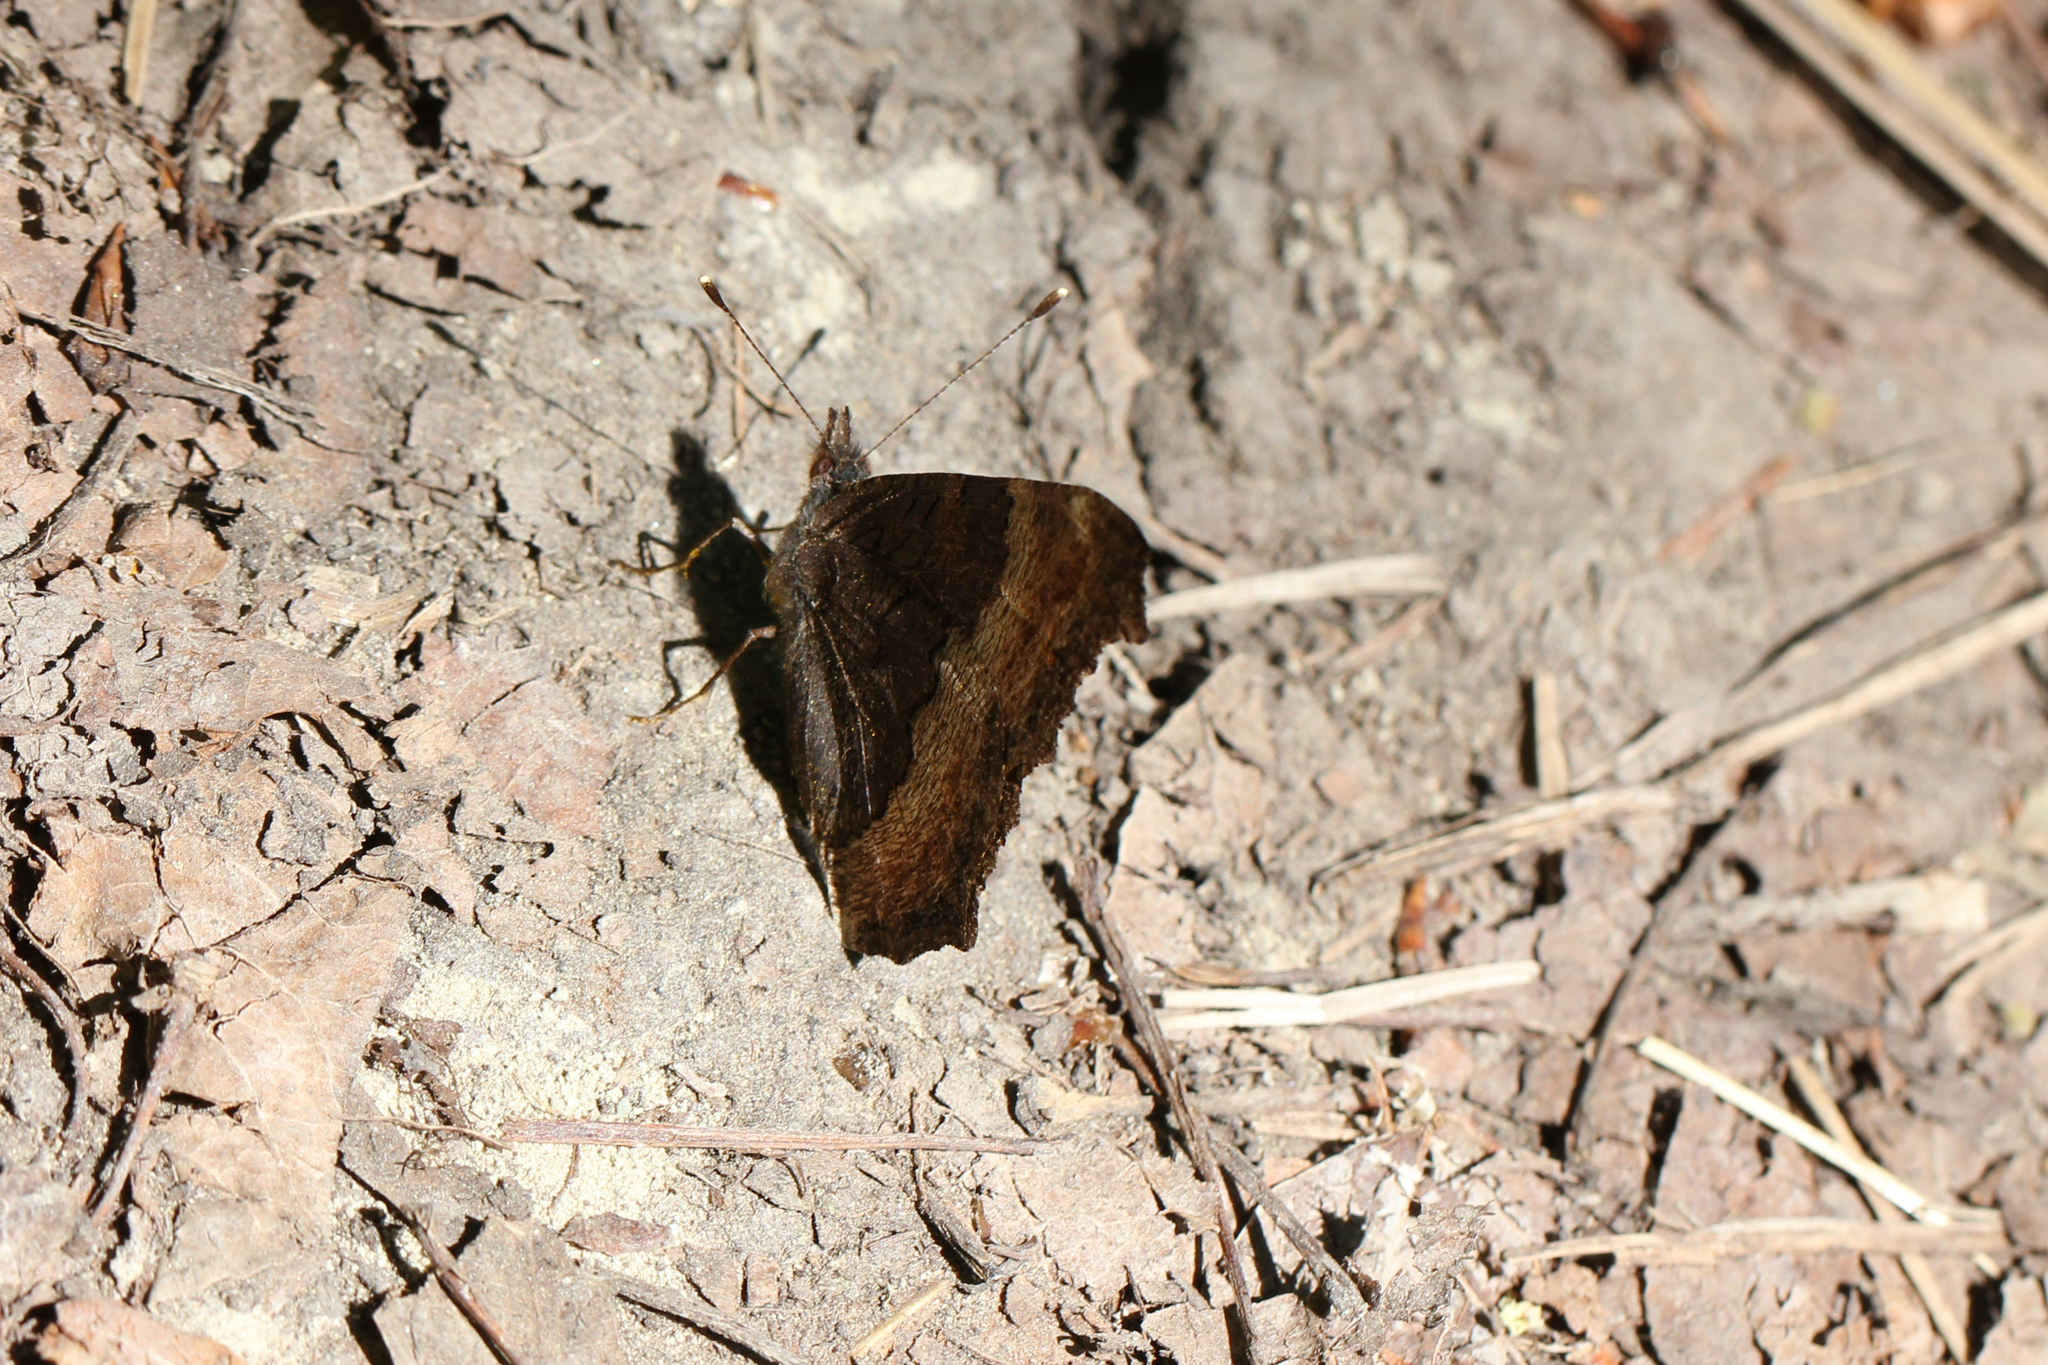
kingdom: Animalia
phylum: Arthropoda
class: Insecta
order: Lepidoptera
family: Nymphalidae
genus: Aglais
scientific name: Aglais milberti
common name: Milbert's tortoiseshell
